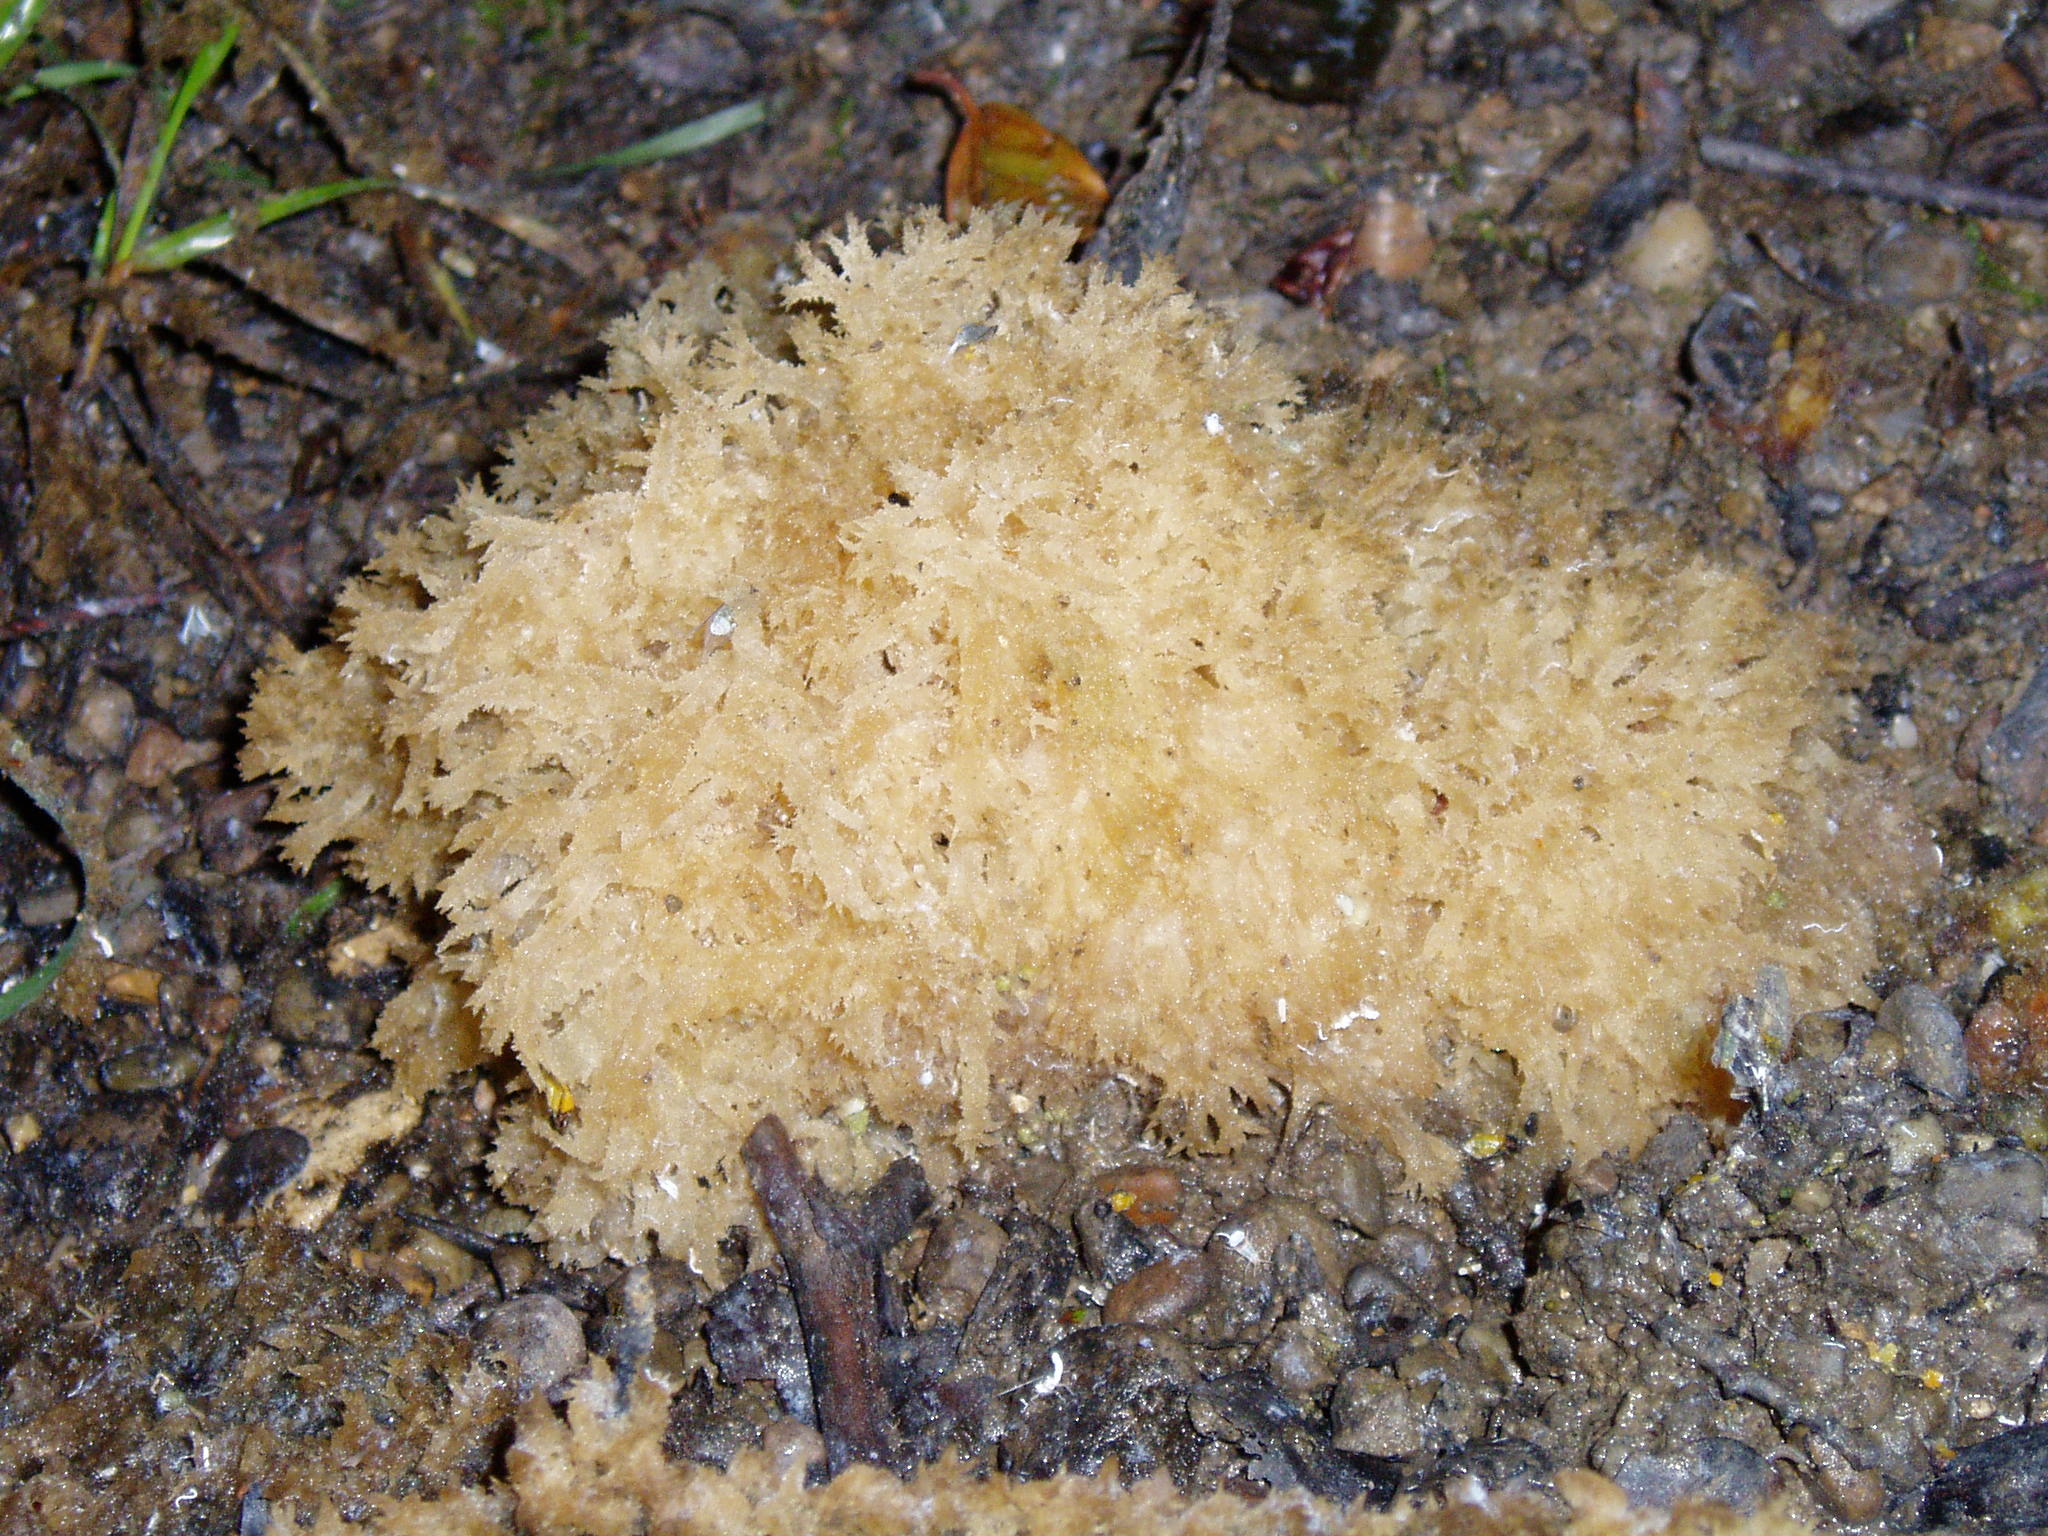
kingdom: Fungi
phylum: Ascomycota
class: Dothideomycetes
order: Capnodiales
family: Capnodiaceae
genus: Scorias
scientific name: Scorias spongiosa
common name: Black sooty mold
